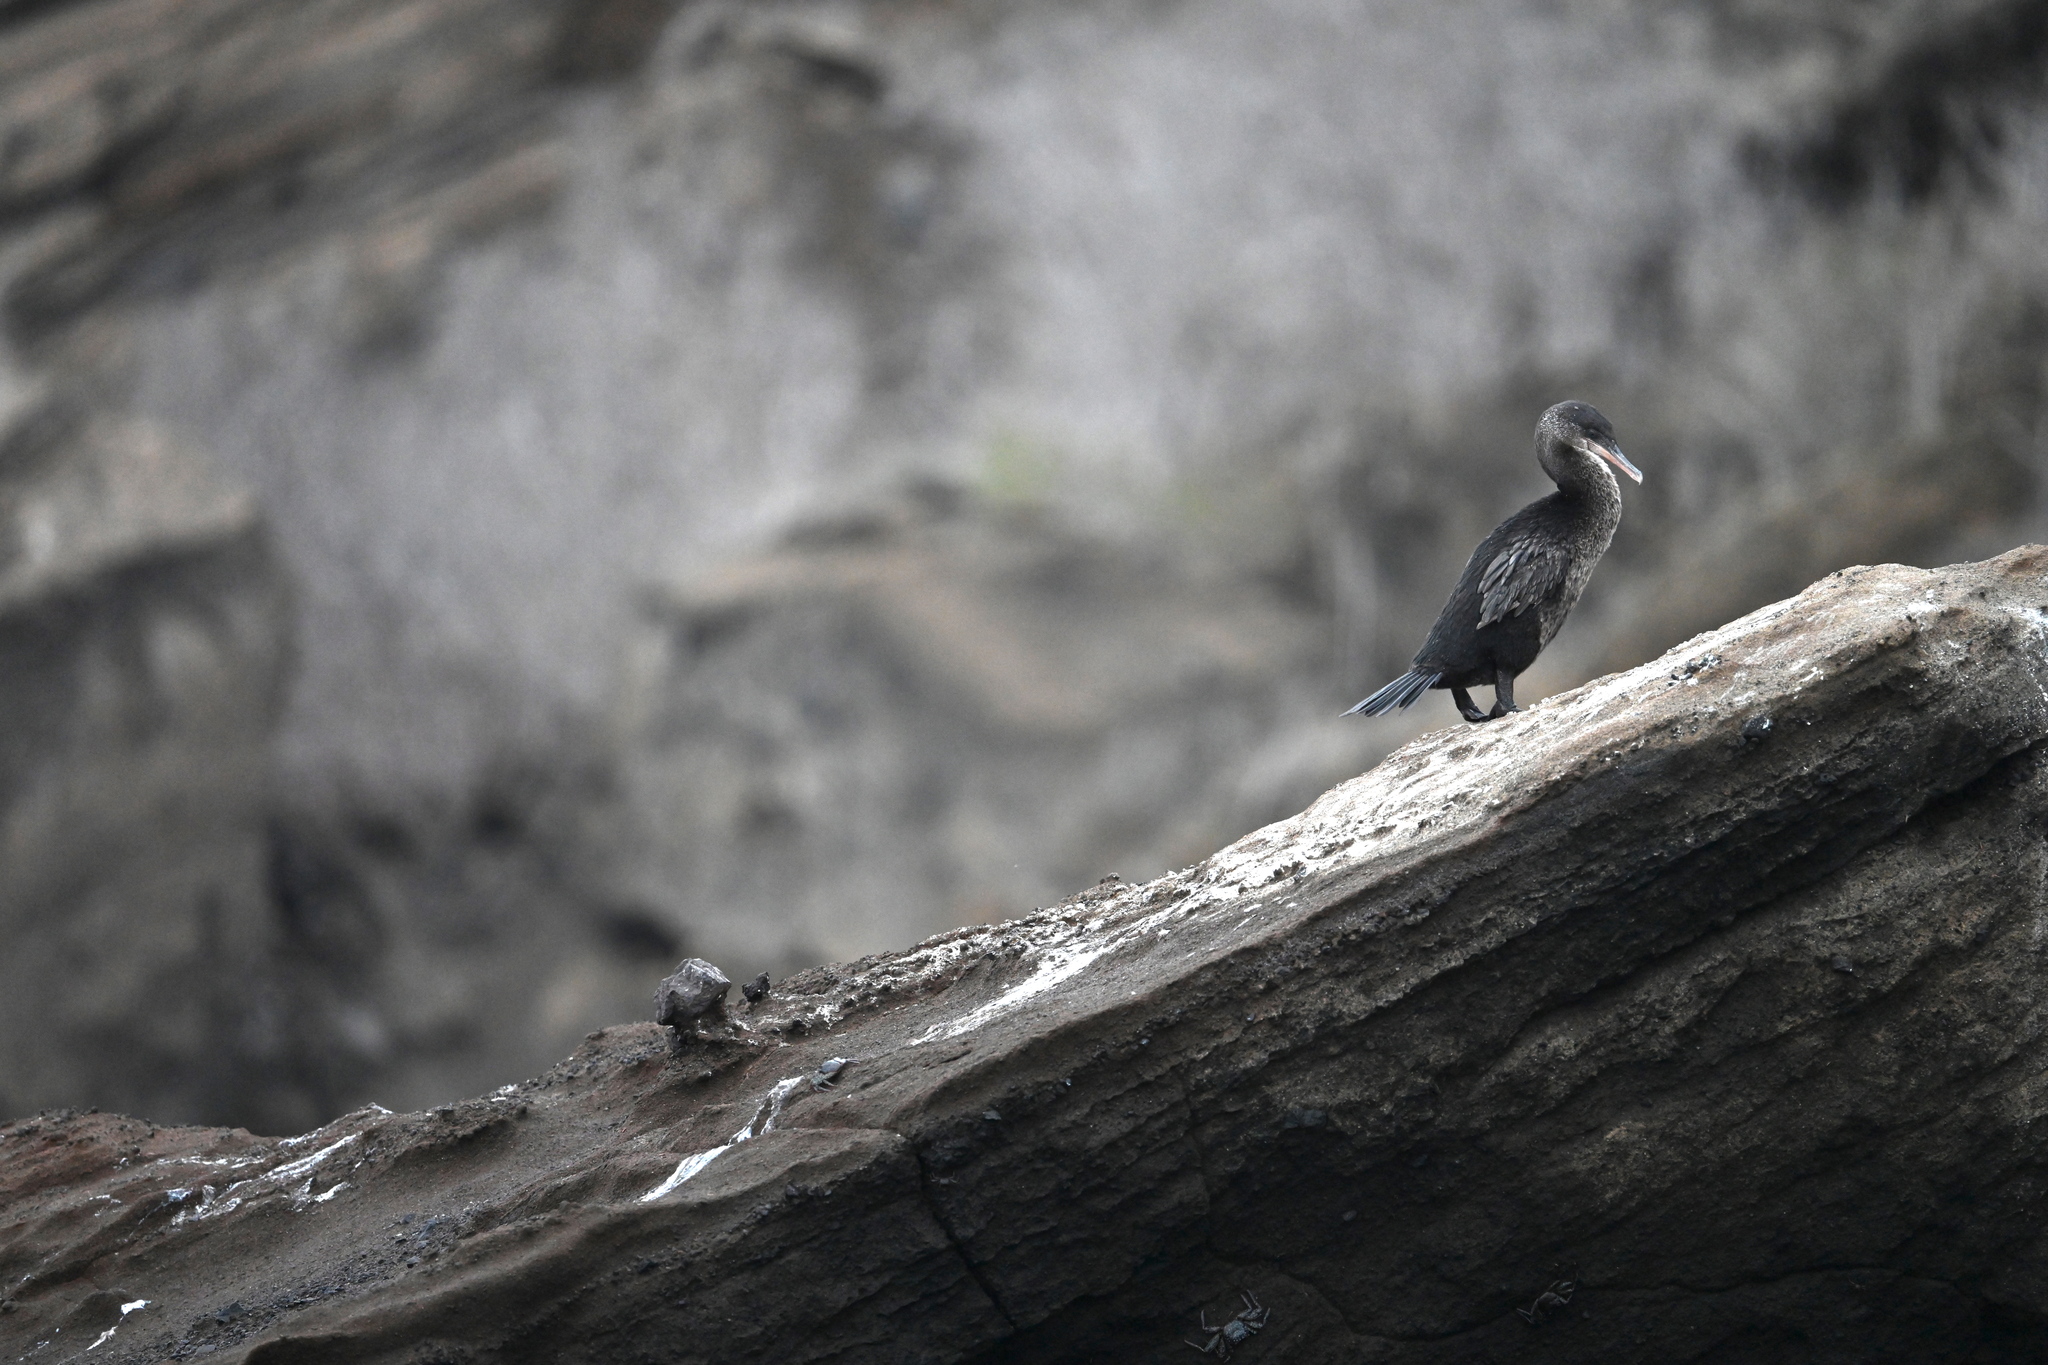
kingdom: Animalia
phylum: Chordata
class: Aves
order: Suliformes
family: Phalacrocoracidae
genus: Phalacrocorax
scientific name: Phalacrocorax harrisi
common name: Flightless cormorant
